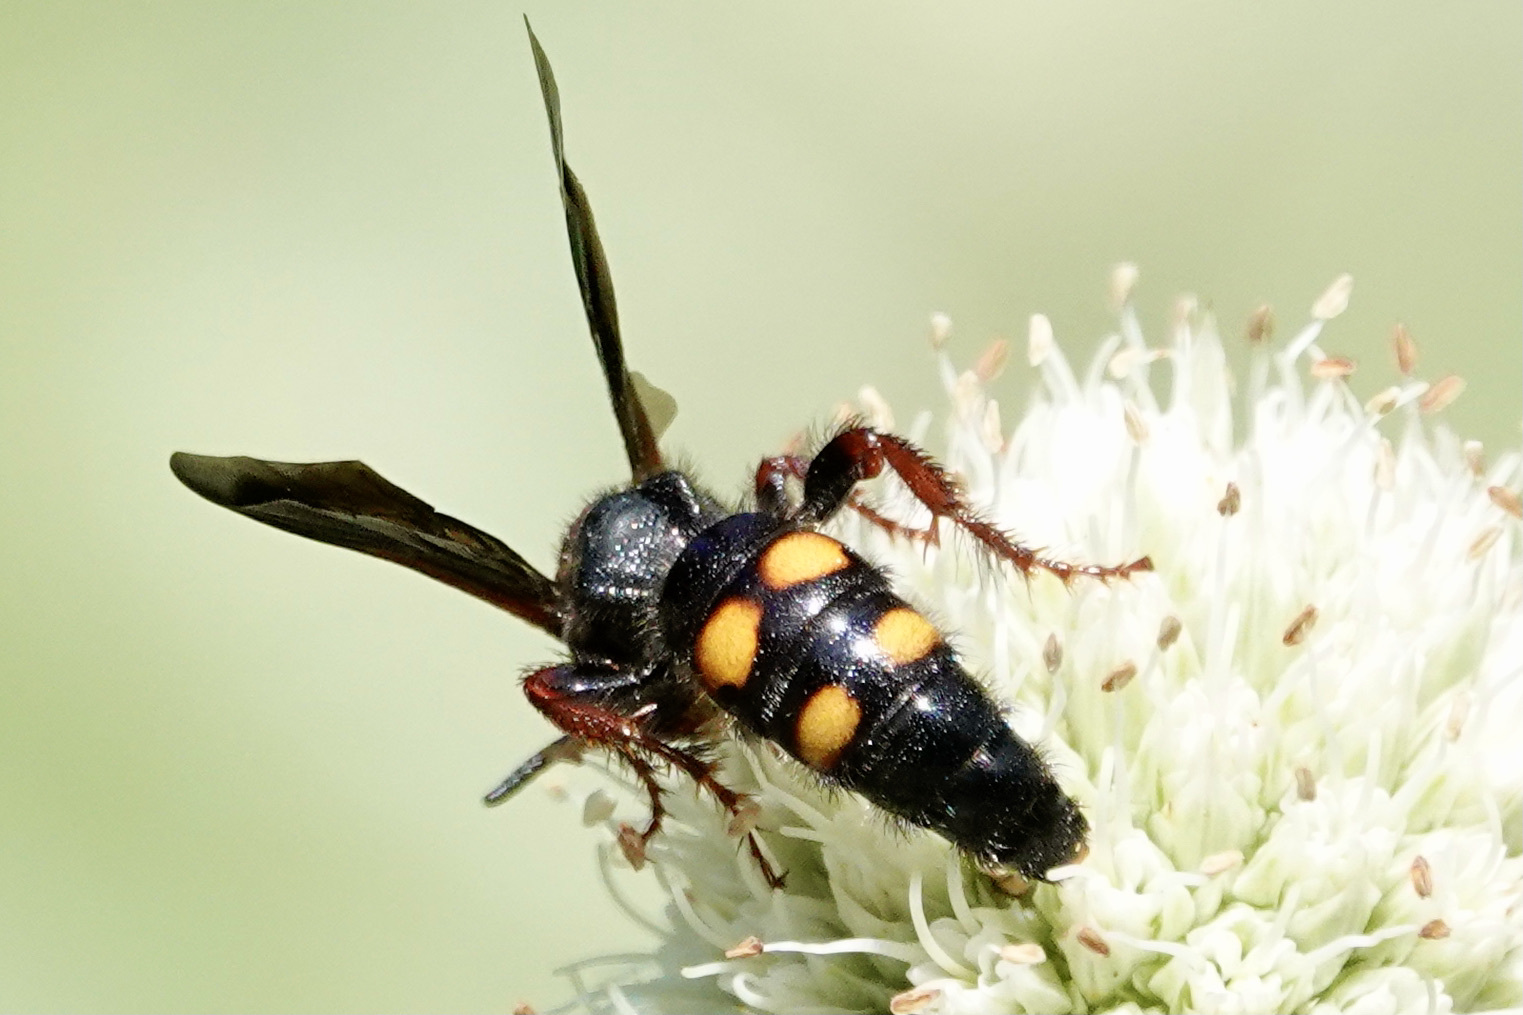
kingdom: Animalia
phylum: Arthropoda
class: Insecta
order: Hymenoptera
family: Scoliidae
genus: Scolia
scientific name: Scolia nobilitata
